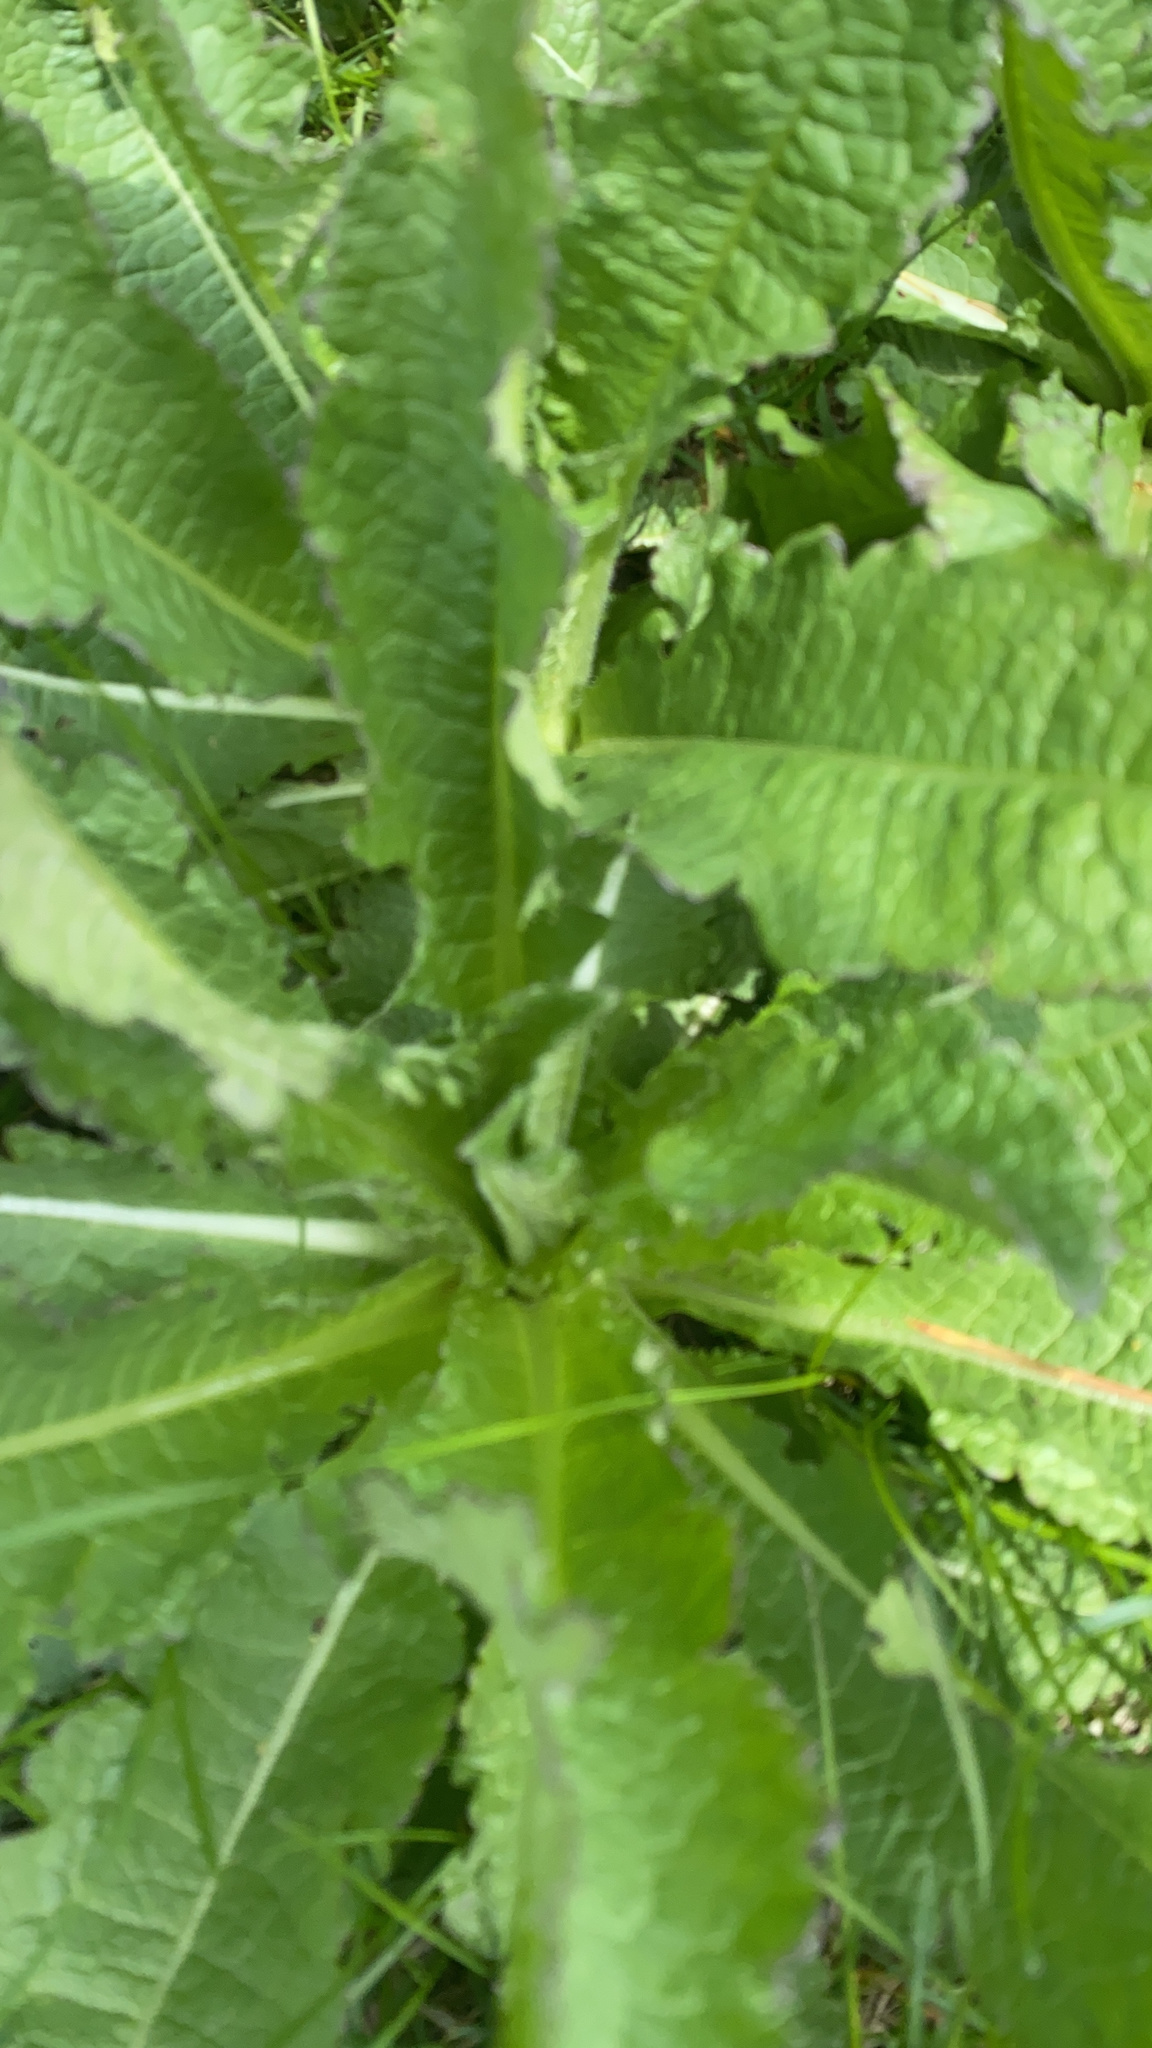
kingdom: Plantae
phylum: Tracheophyta
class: Magnoliopsida
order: Dipsacales
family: Caprifoliaceae
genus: Dipsacus
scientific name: Dipsacus laciniatus
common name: Cut-leaved teasel
